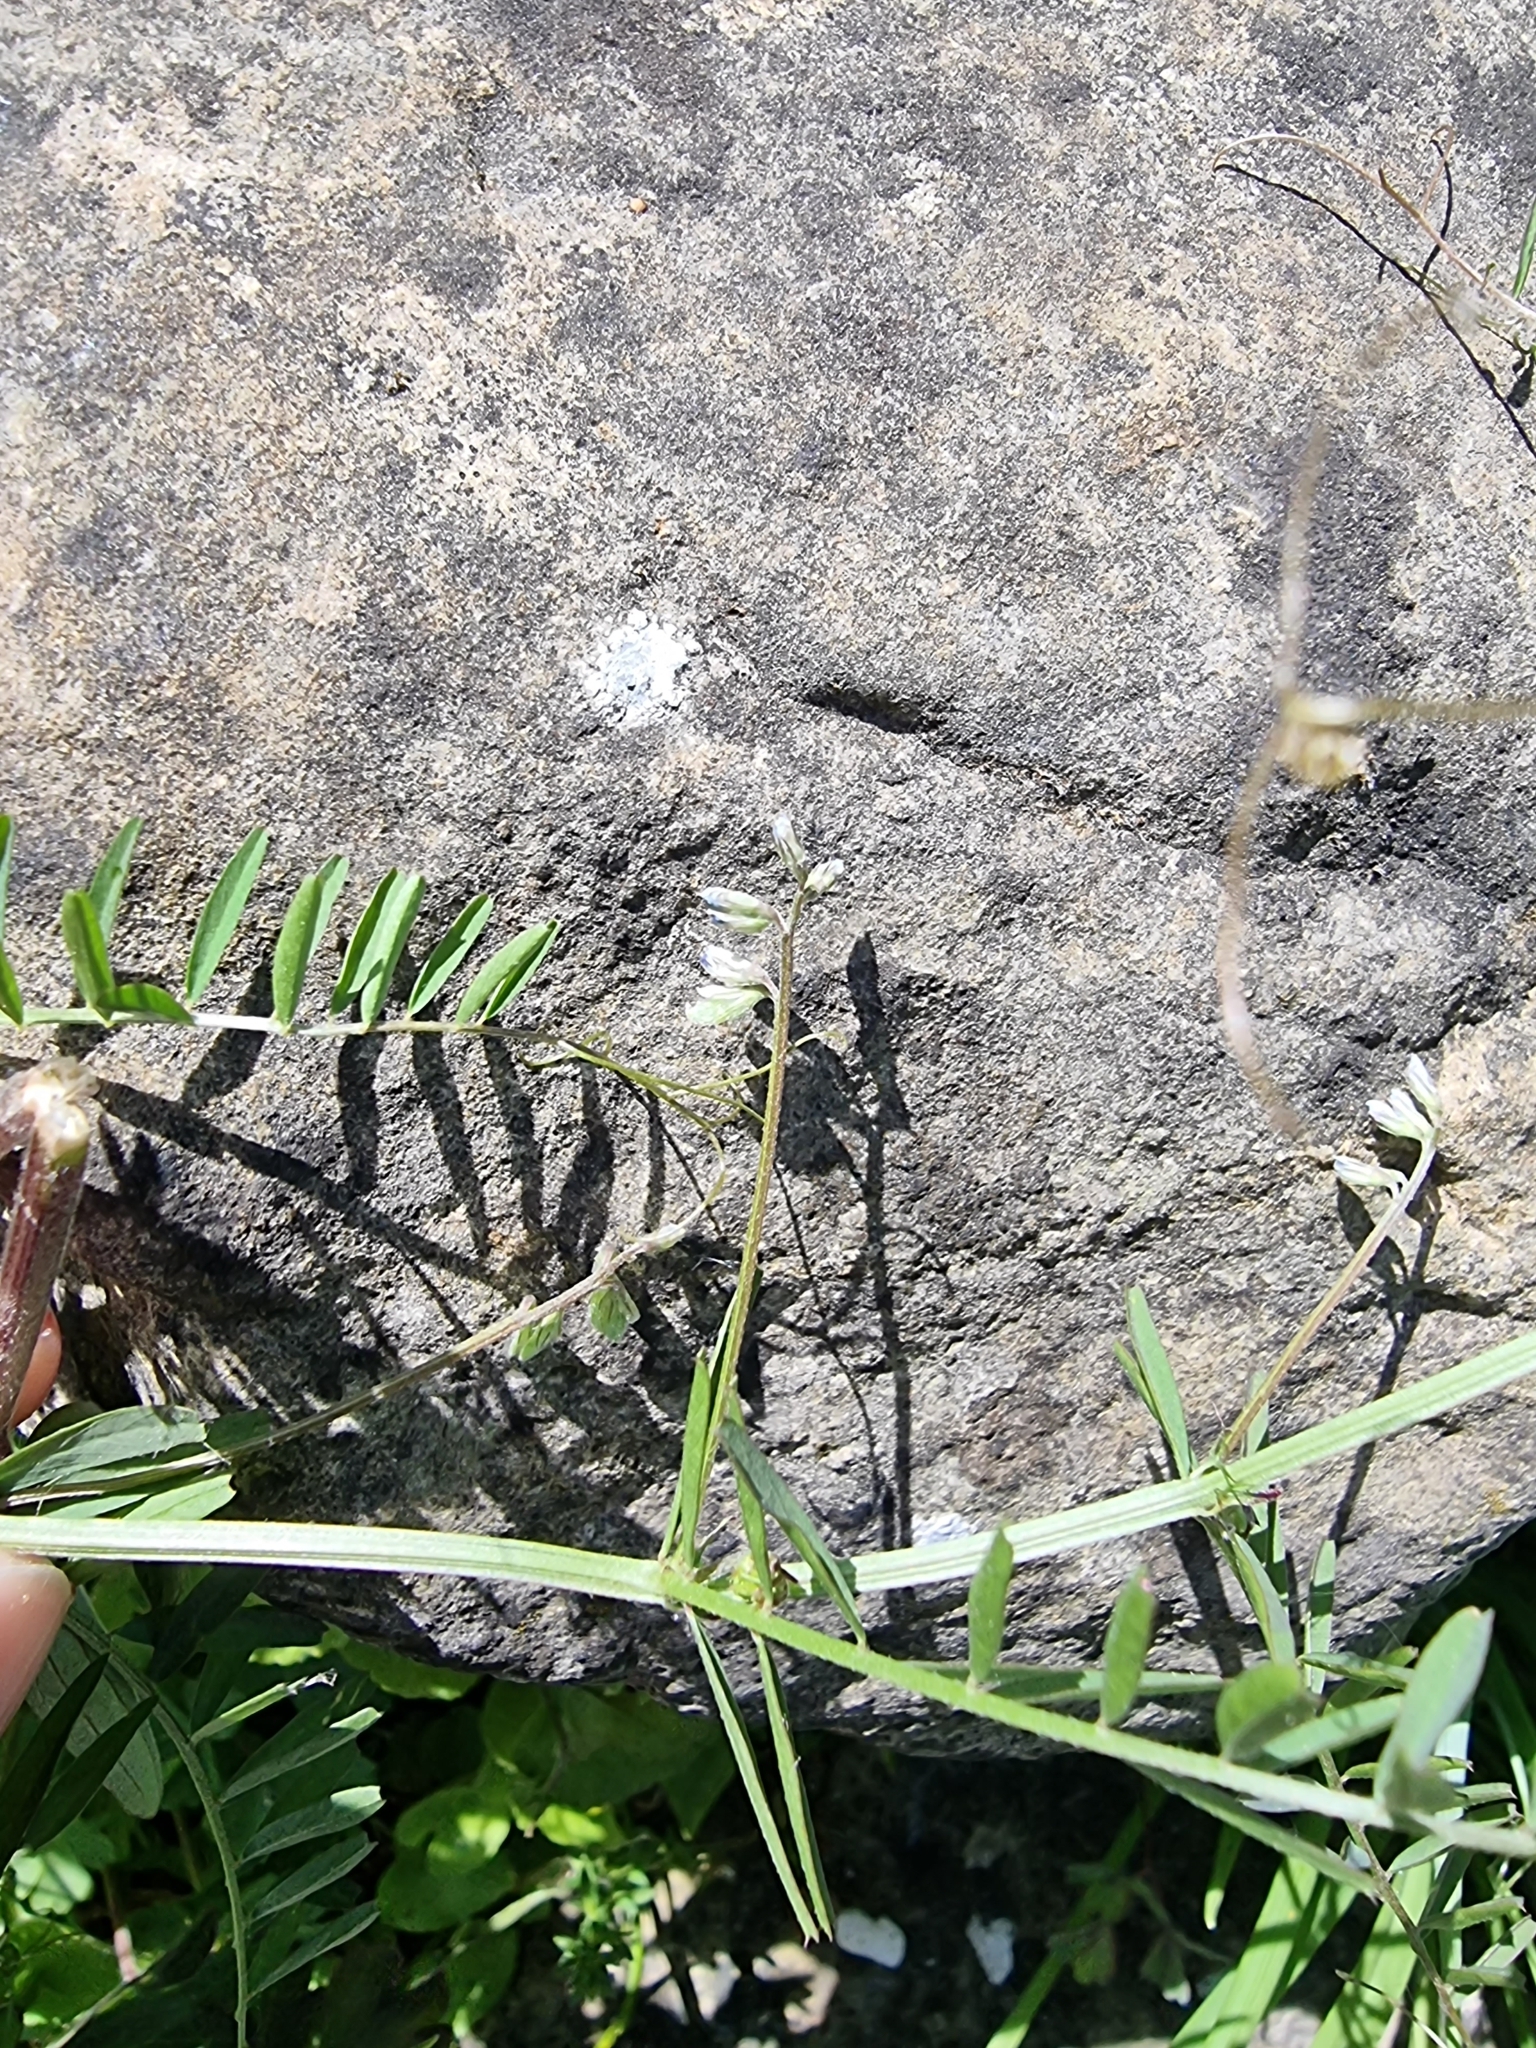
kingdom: Plantae
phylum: Tracheophyta
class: Magnoliopsida
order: Fabales
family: Fabaceae
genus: Vicia
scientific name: Vicia hirsuta
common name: Tiny vetch
